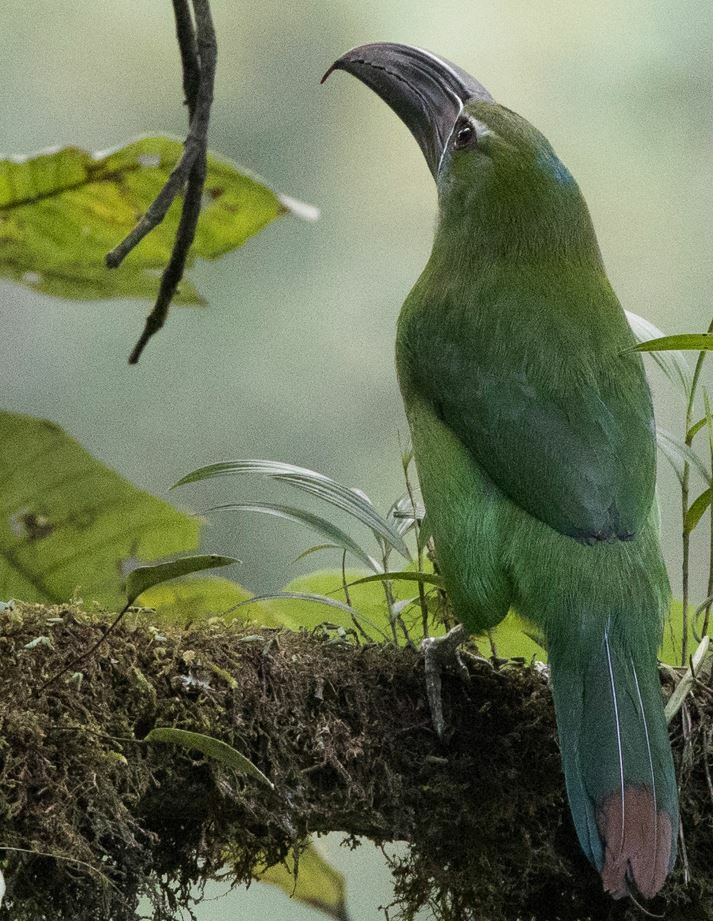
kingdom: Animalia
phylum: Chordata
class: Aves
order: Piciformes
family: Ramphastidae
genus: Aulacorhynchus
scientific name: Aulacorhynchus derbianus
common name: Chestnut-tipped toucanet
